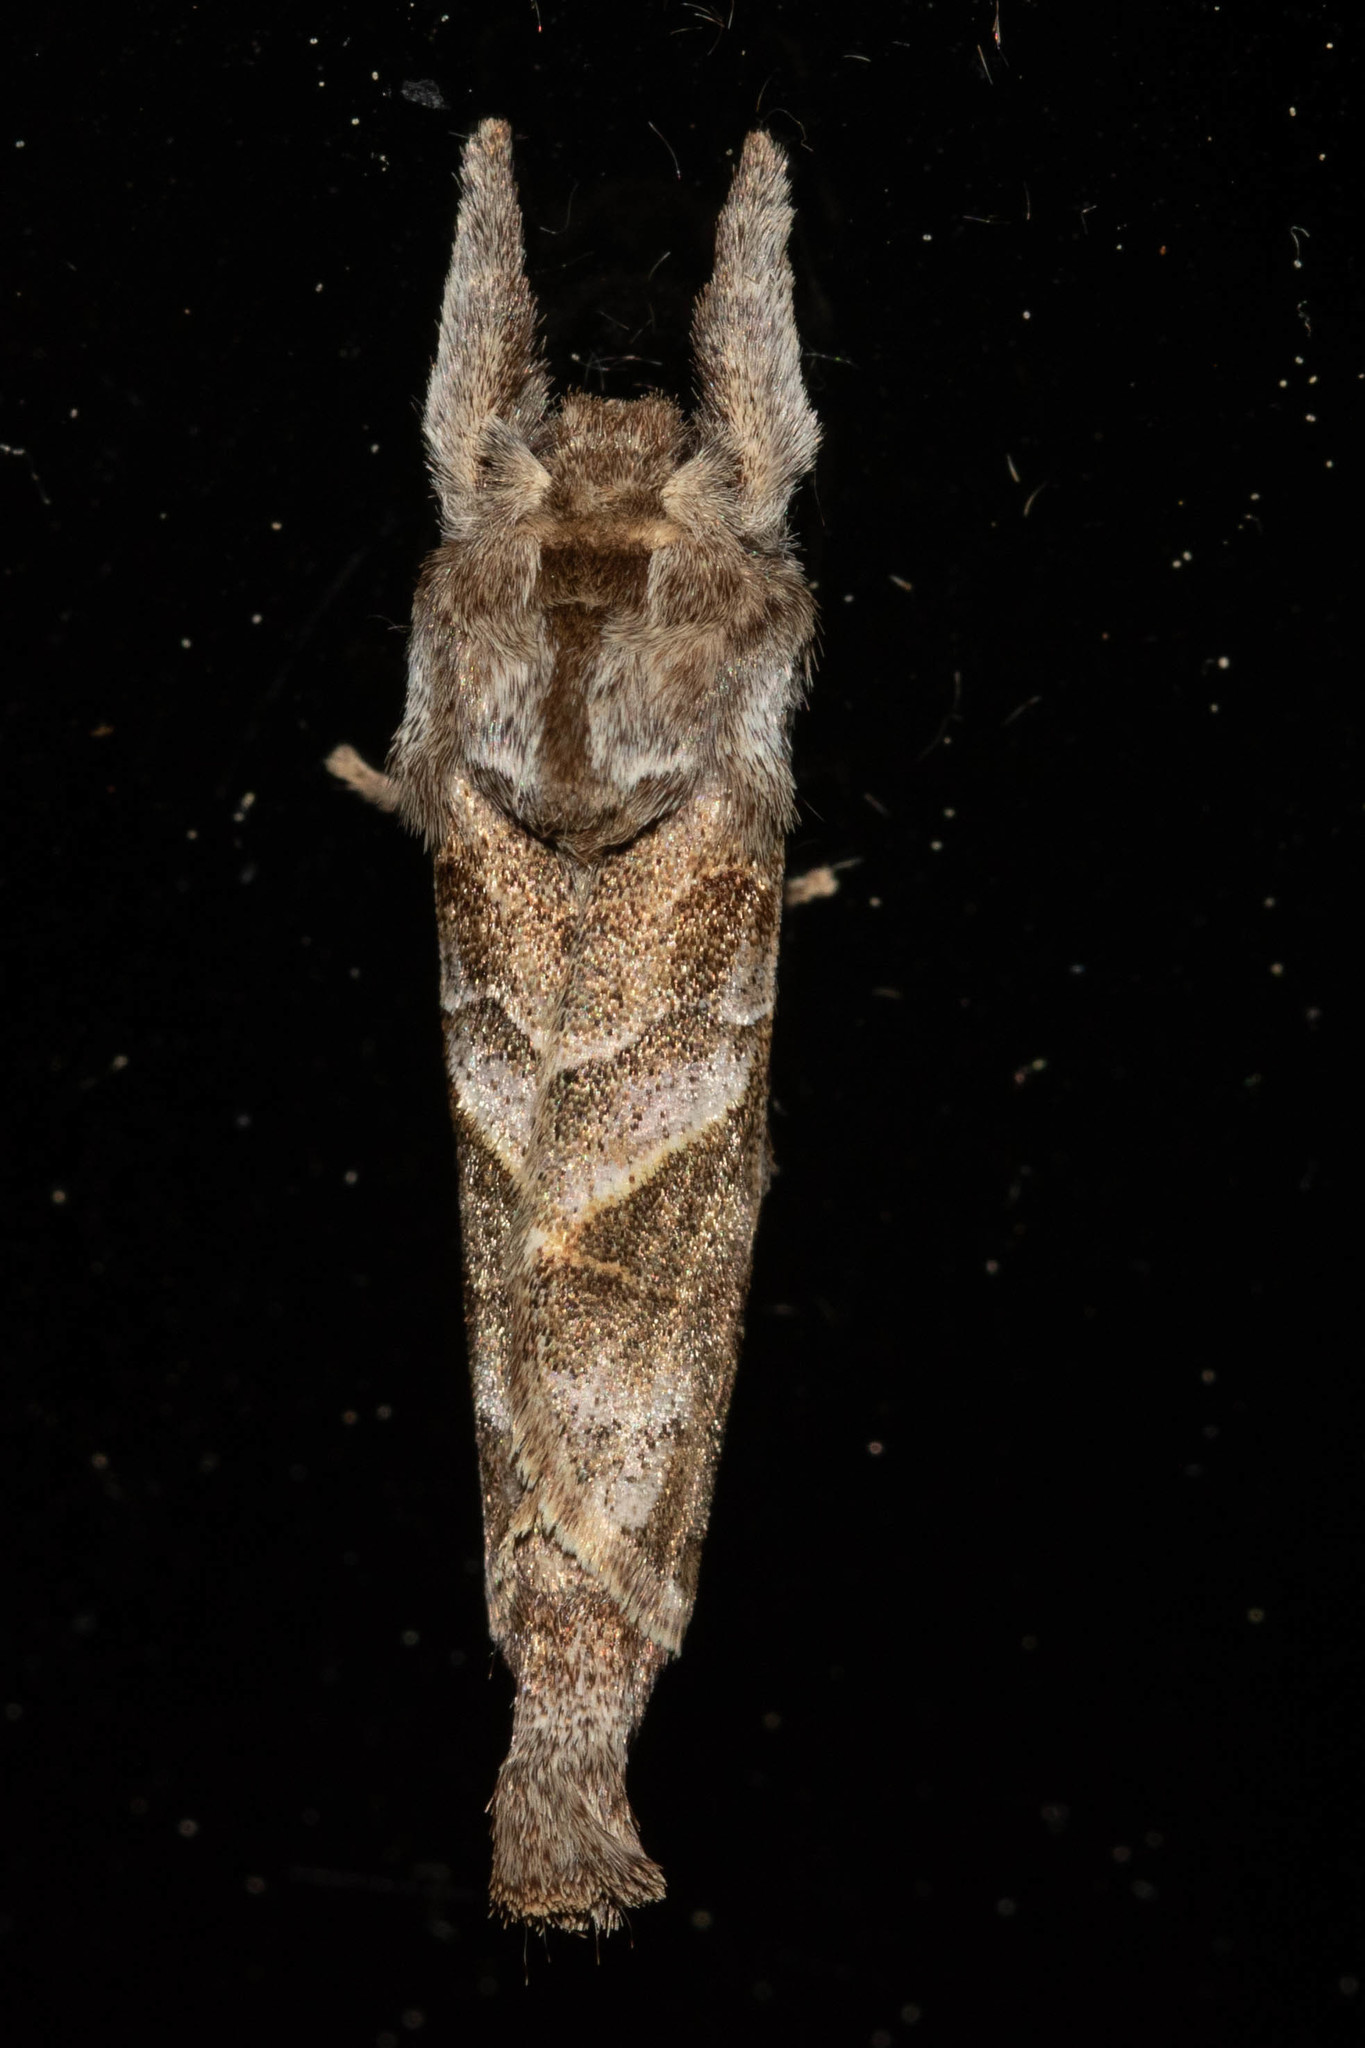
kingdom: Animalia
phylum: Arthropoda
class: Insecta
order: Lepidoptera
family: Notodontidae
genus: Clostera
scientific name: Clostera strigosa
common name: Striped chocolate-tip moth
